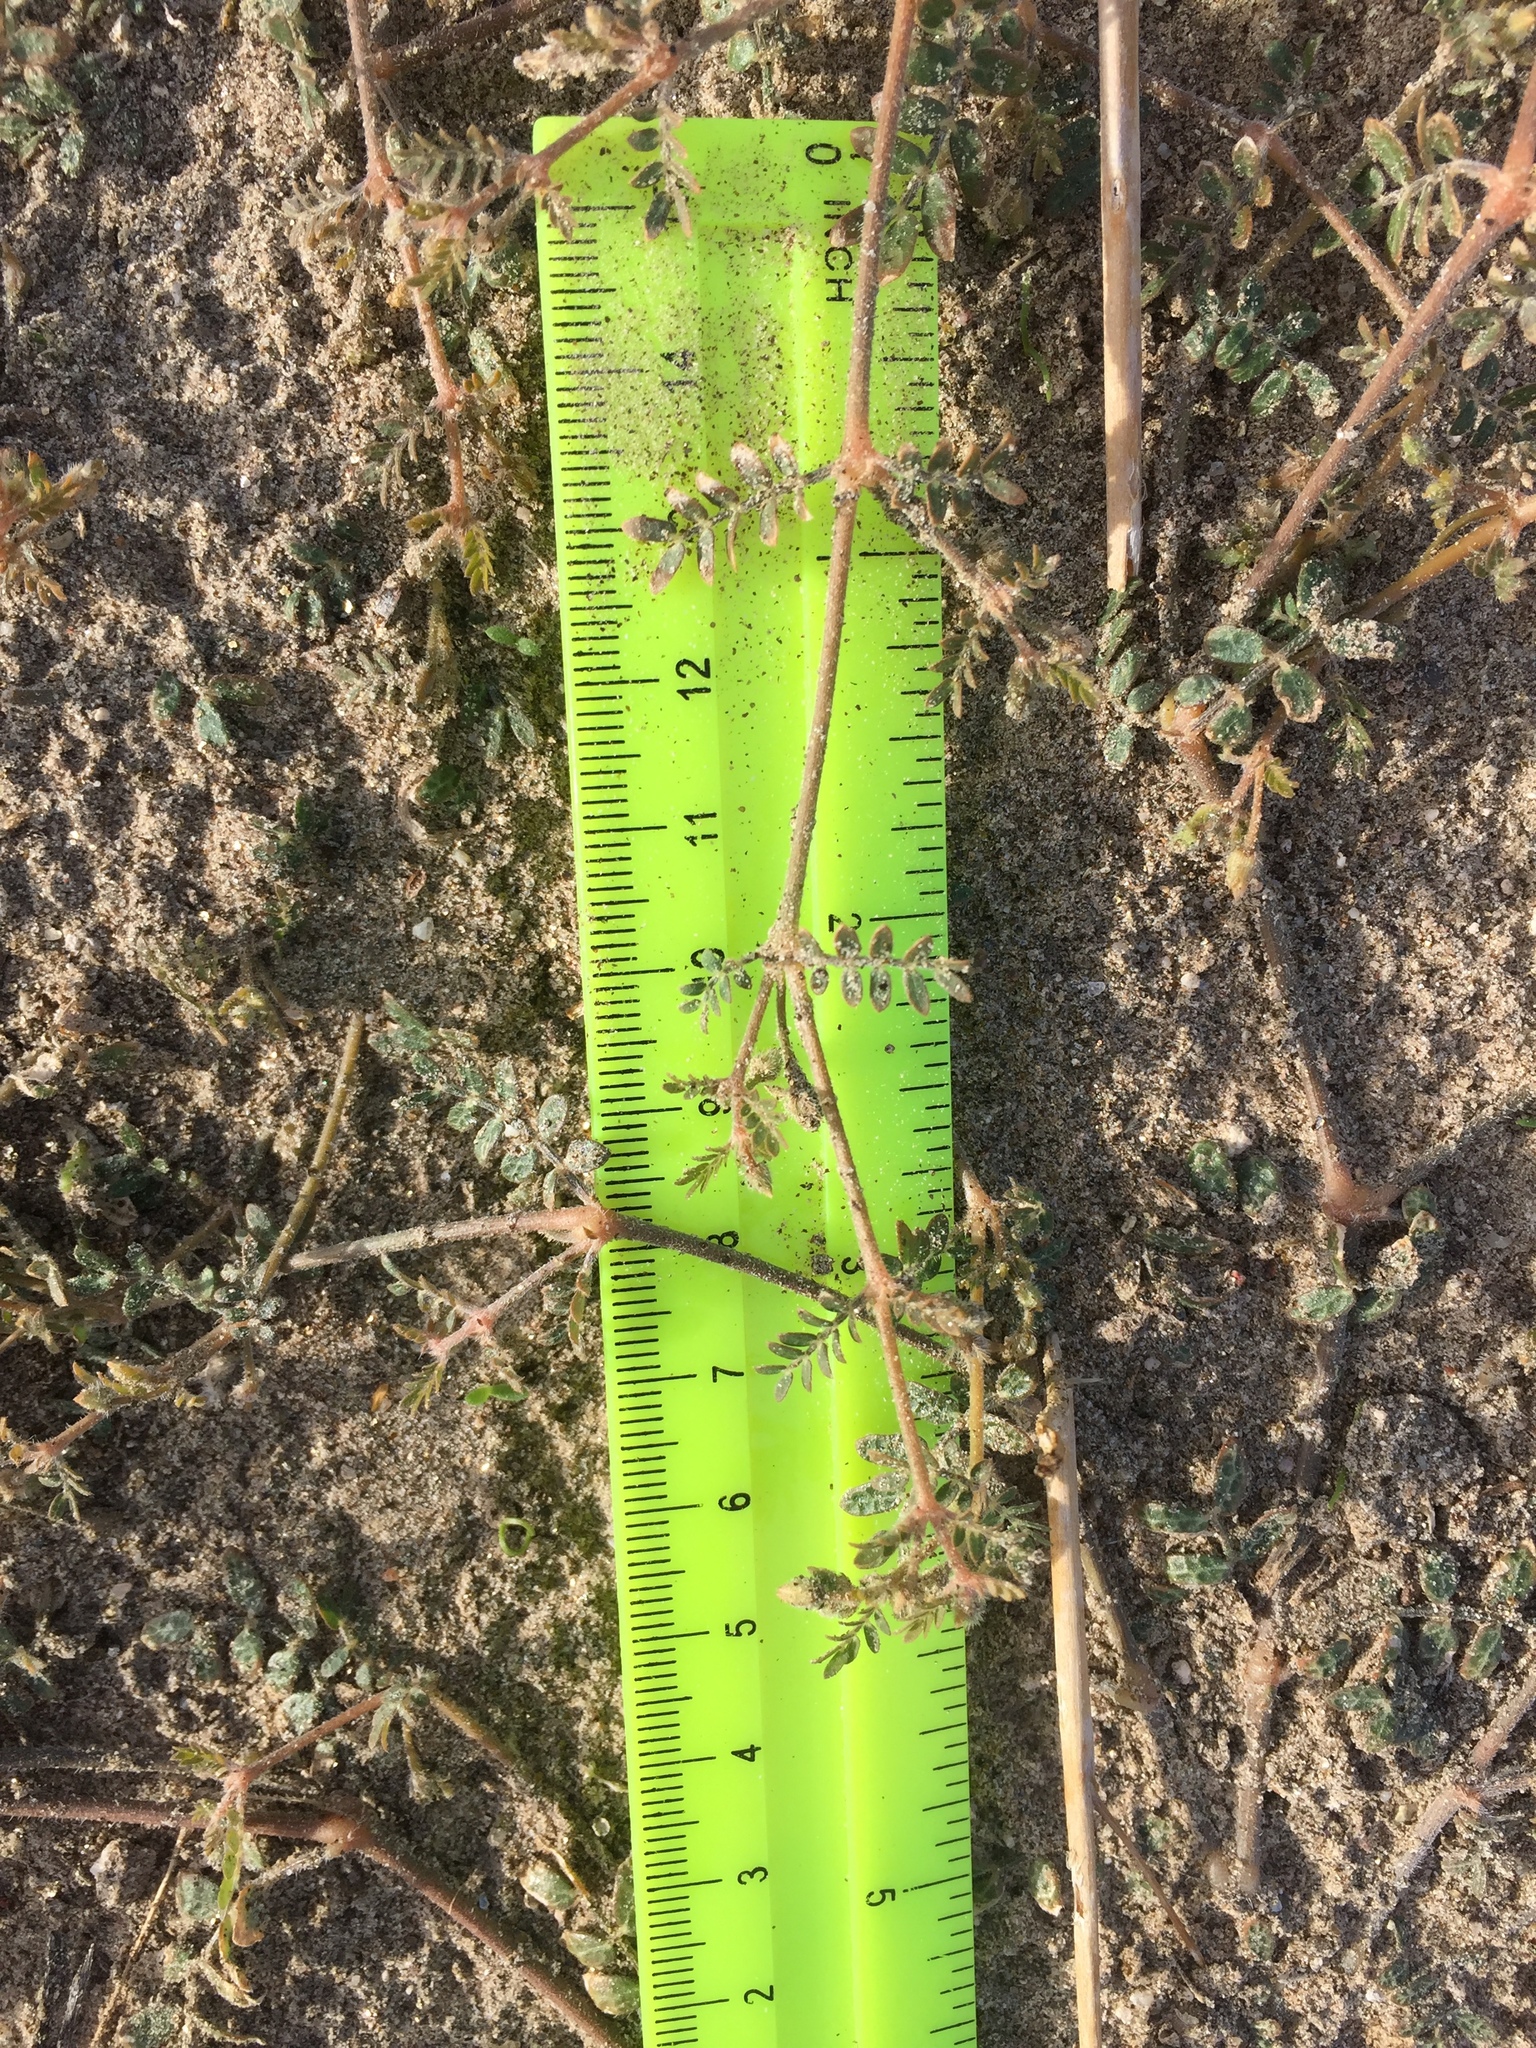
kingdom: Plantae
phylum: Tracheophyta
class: Magnoliopsida
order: Zygophyllales
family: Zygophyllaceae
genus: Kallstroemia
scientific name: Kallstroemia californica
